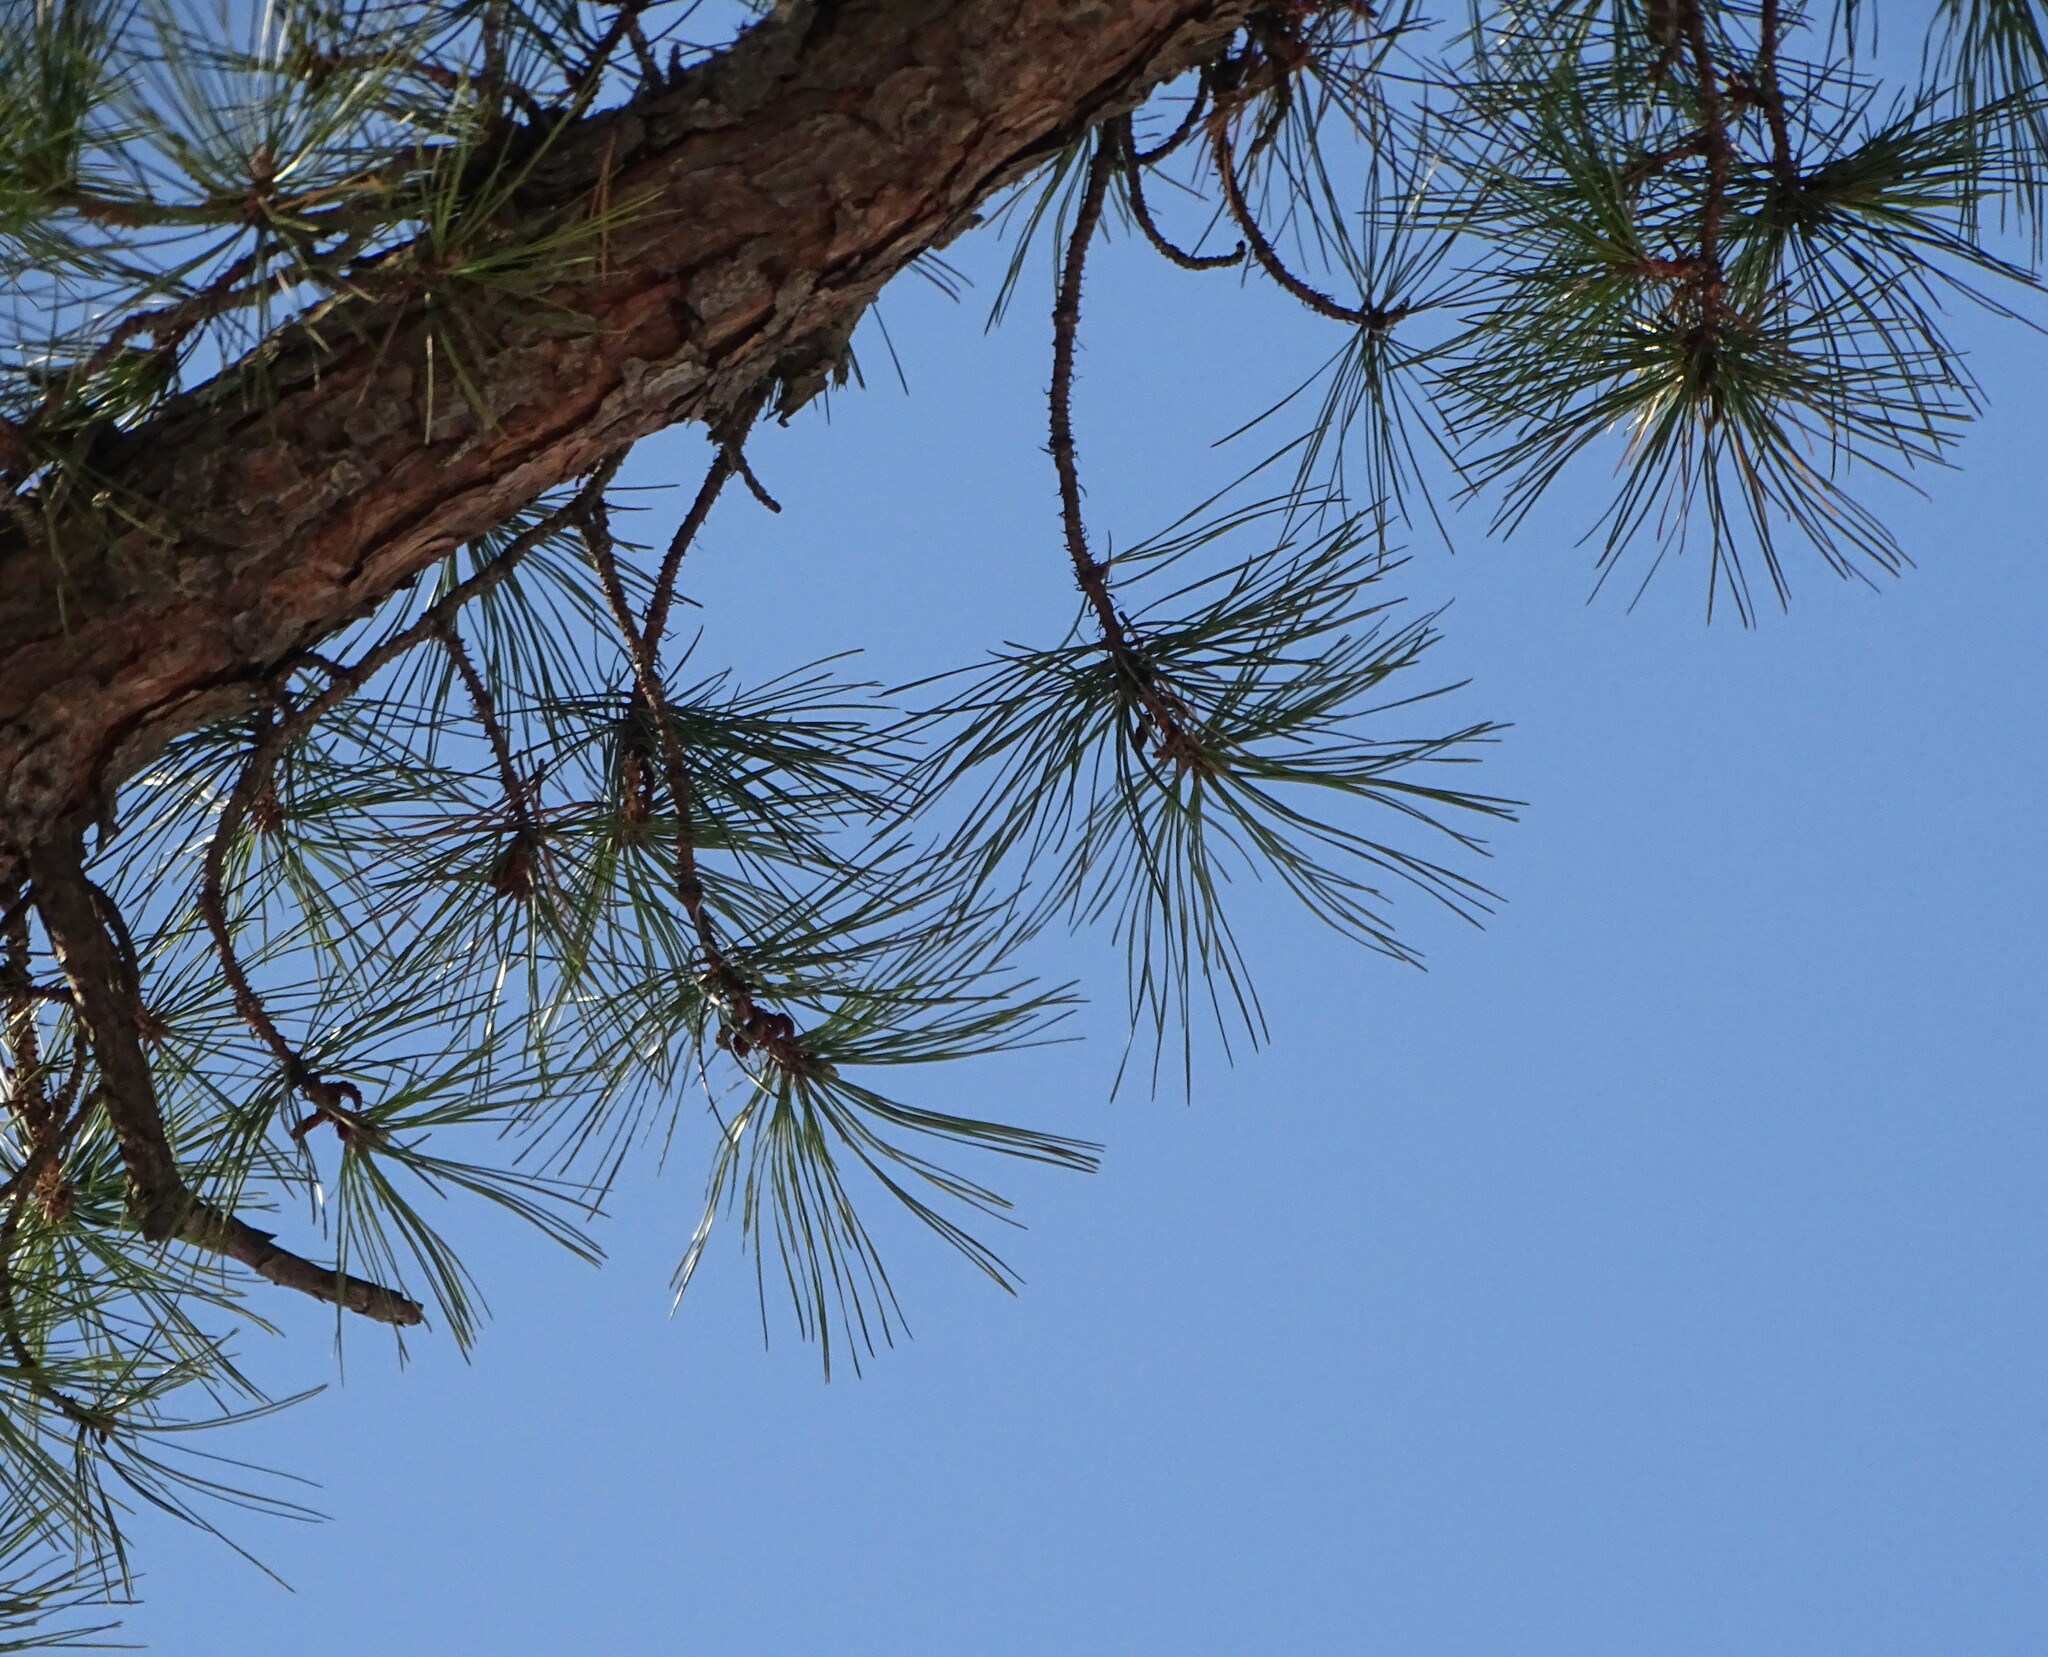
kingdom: Plantae
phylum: Tracheophyta
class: Pinopsida
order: Pinales
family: Pinaceae
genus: Pinus
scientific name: Pinus rigida
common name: Pitch pine
